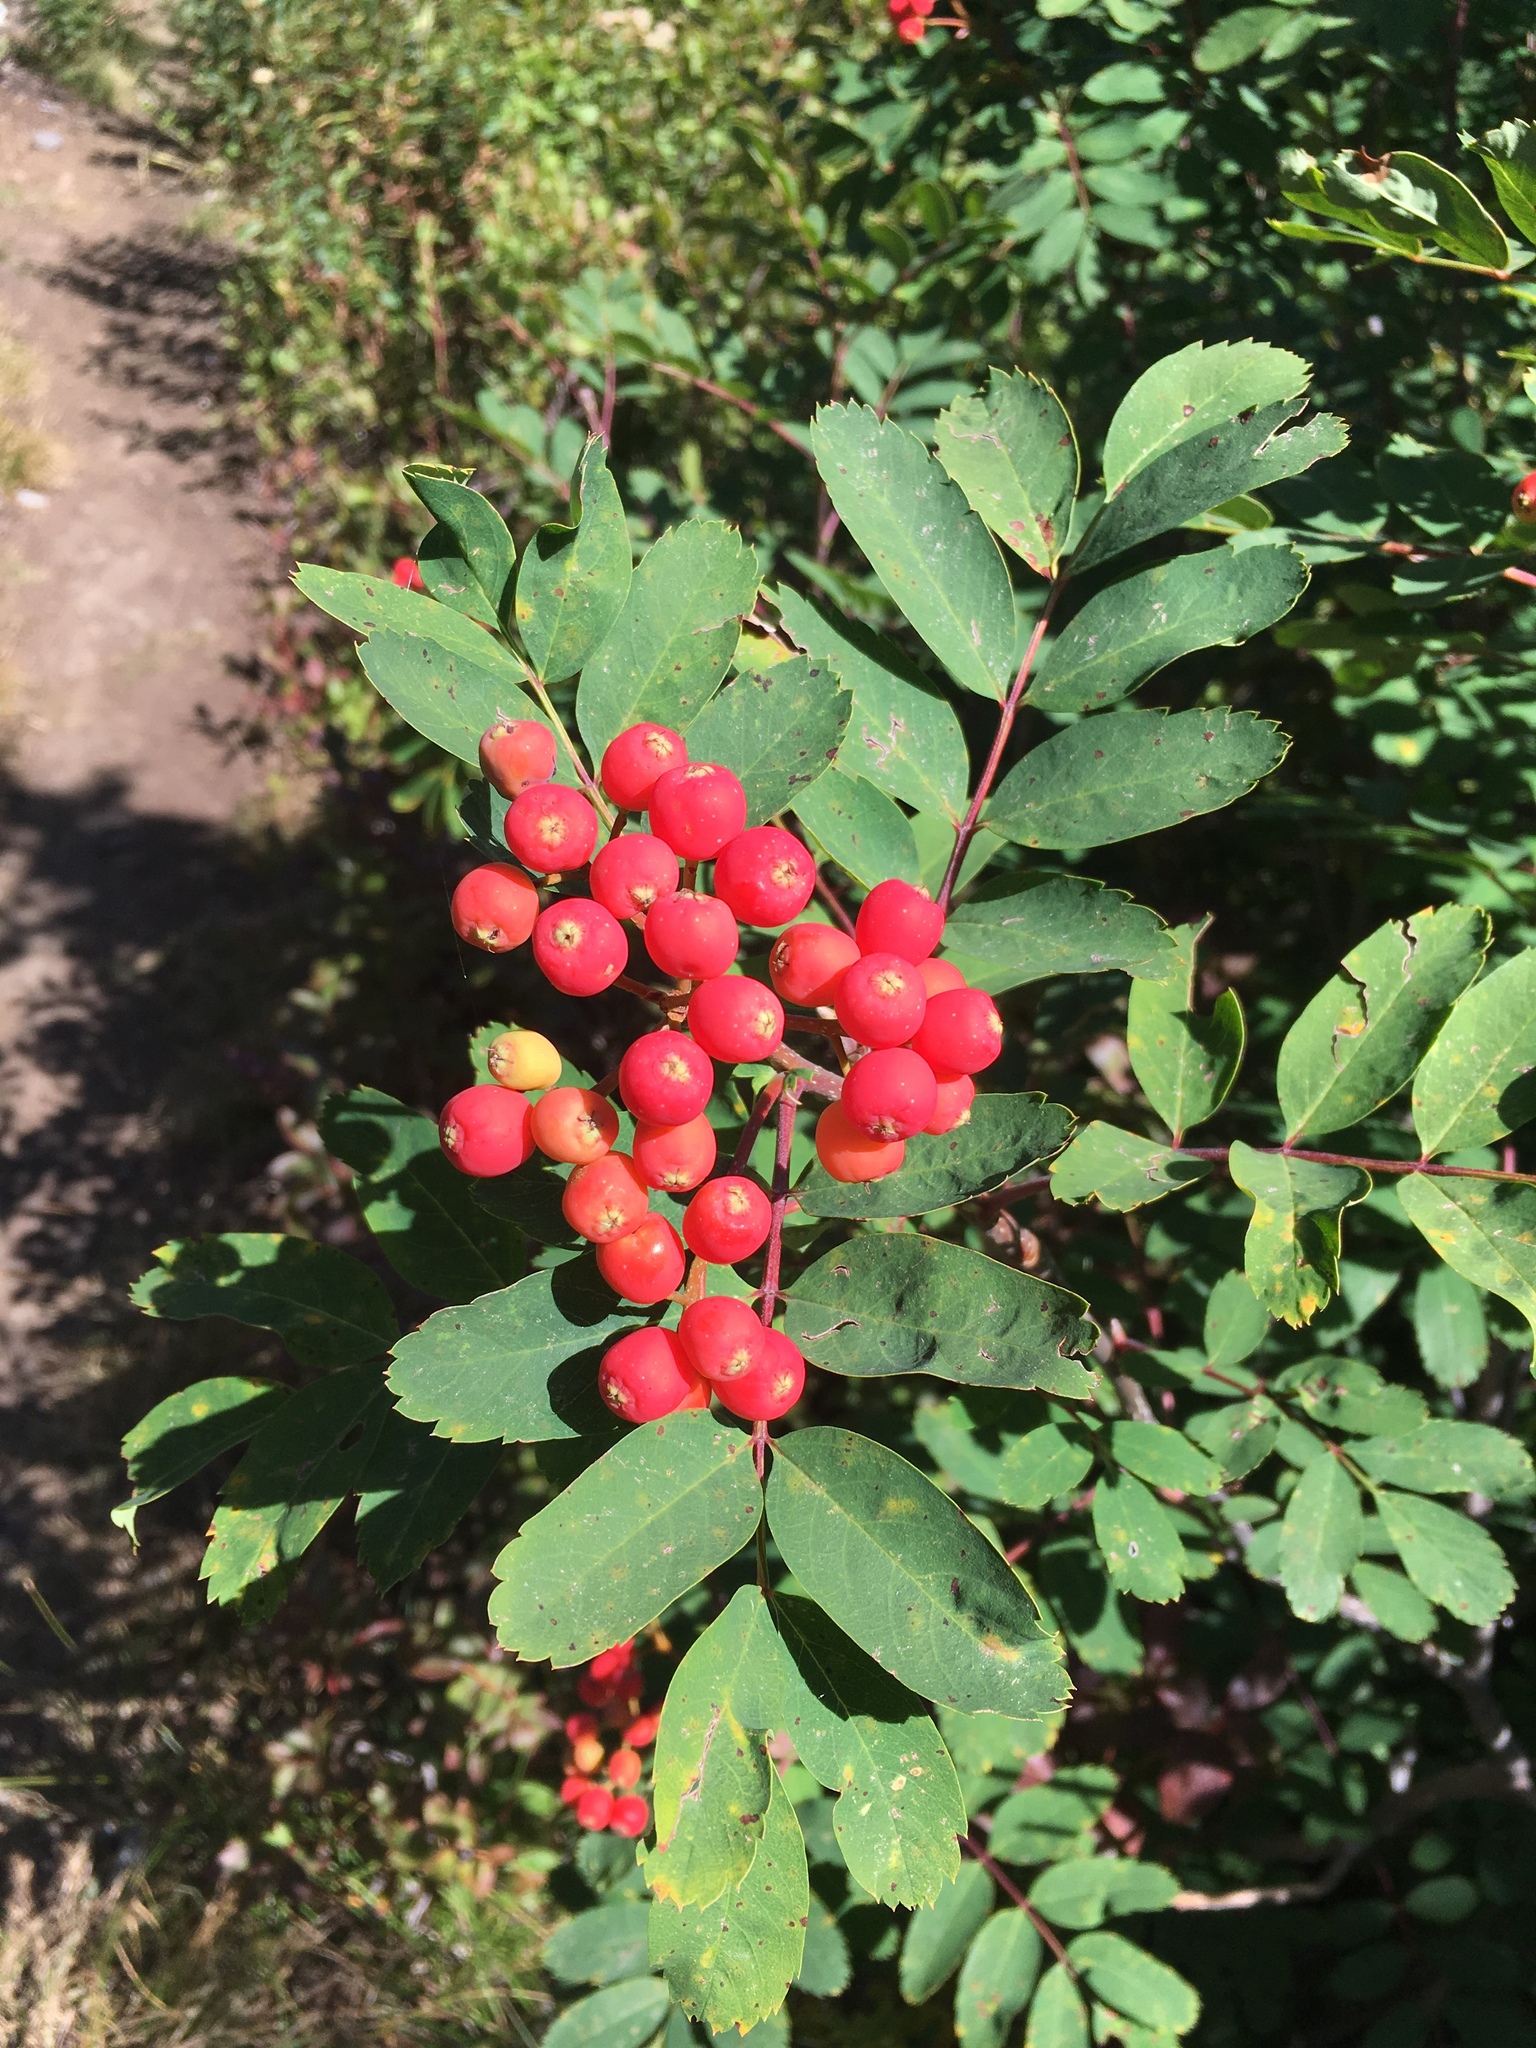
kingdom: Plantae
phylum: Tracheophyta
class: Magnoliopsida
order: Rosales
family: Rosaceae
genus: Sorbus
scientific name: Sorbus sitchensis
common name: Sitka mountain-ash
